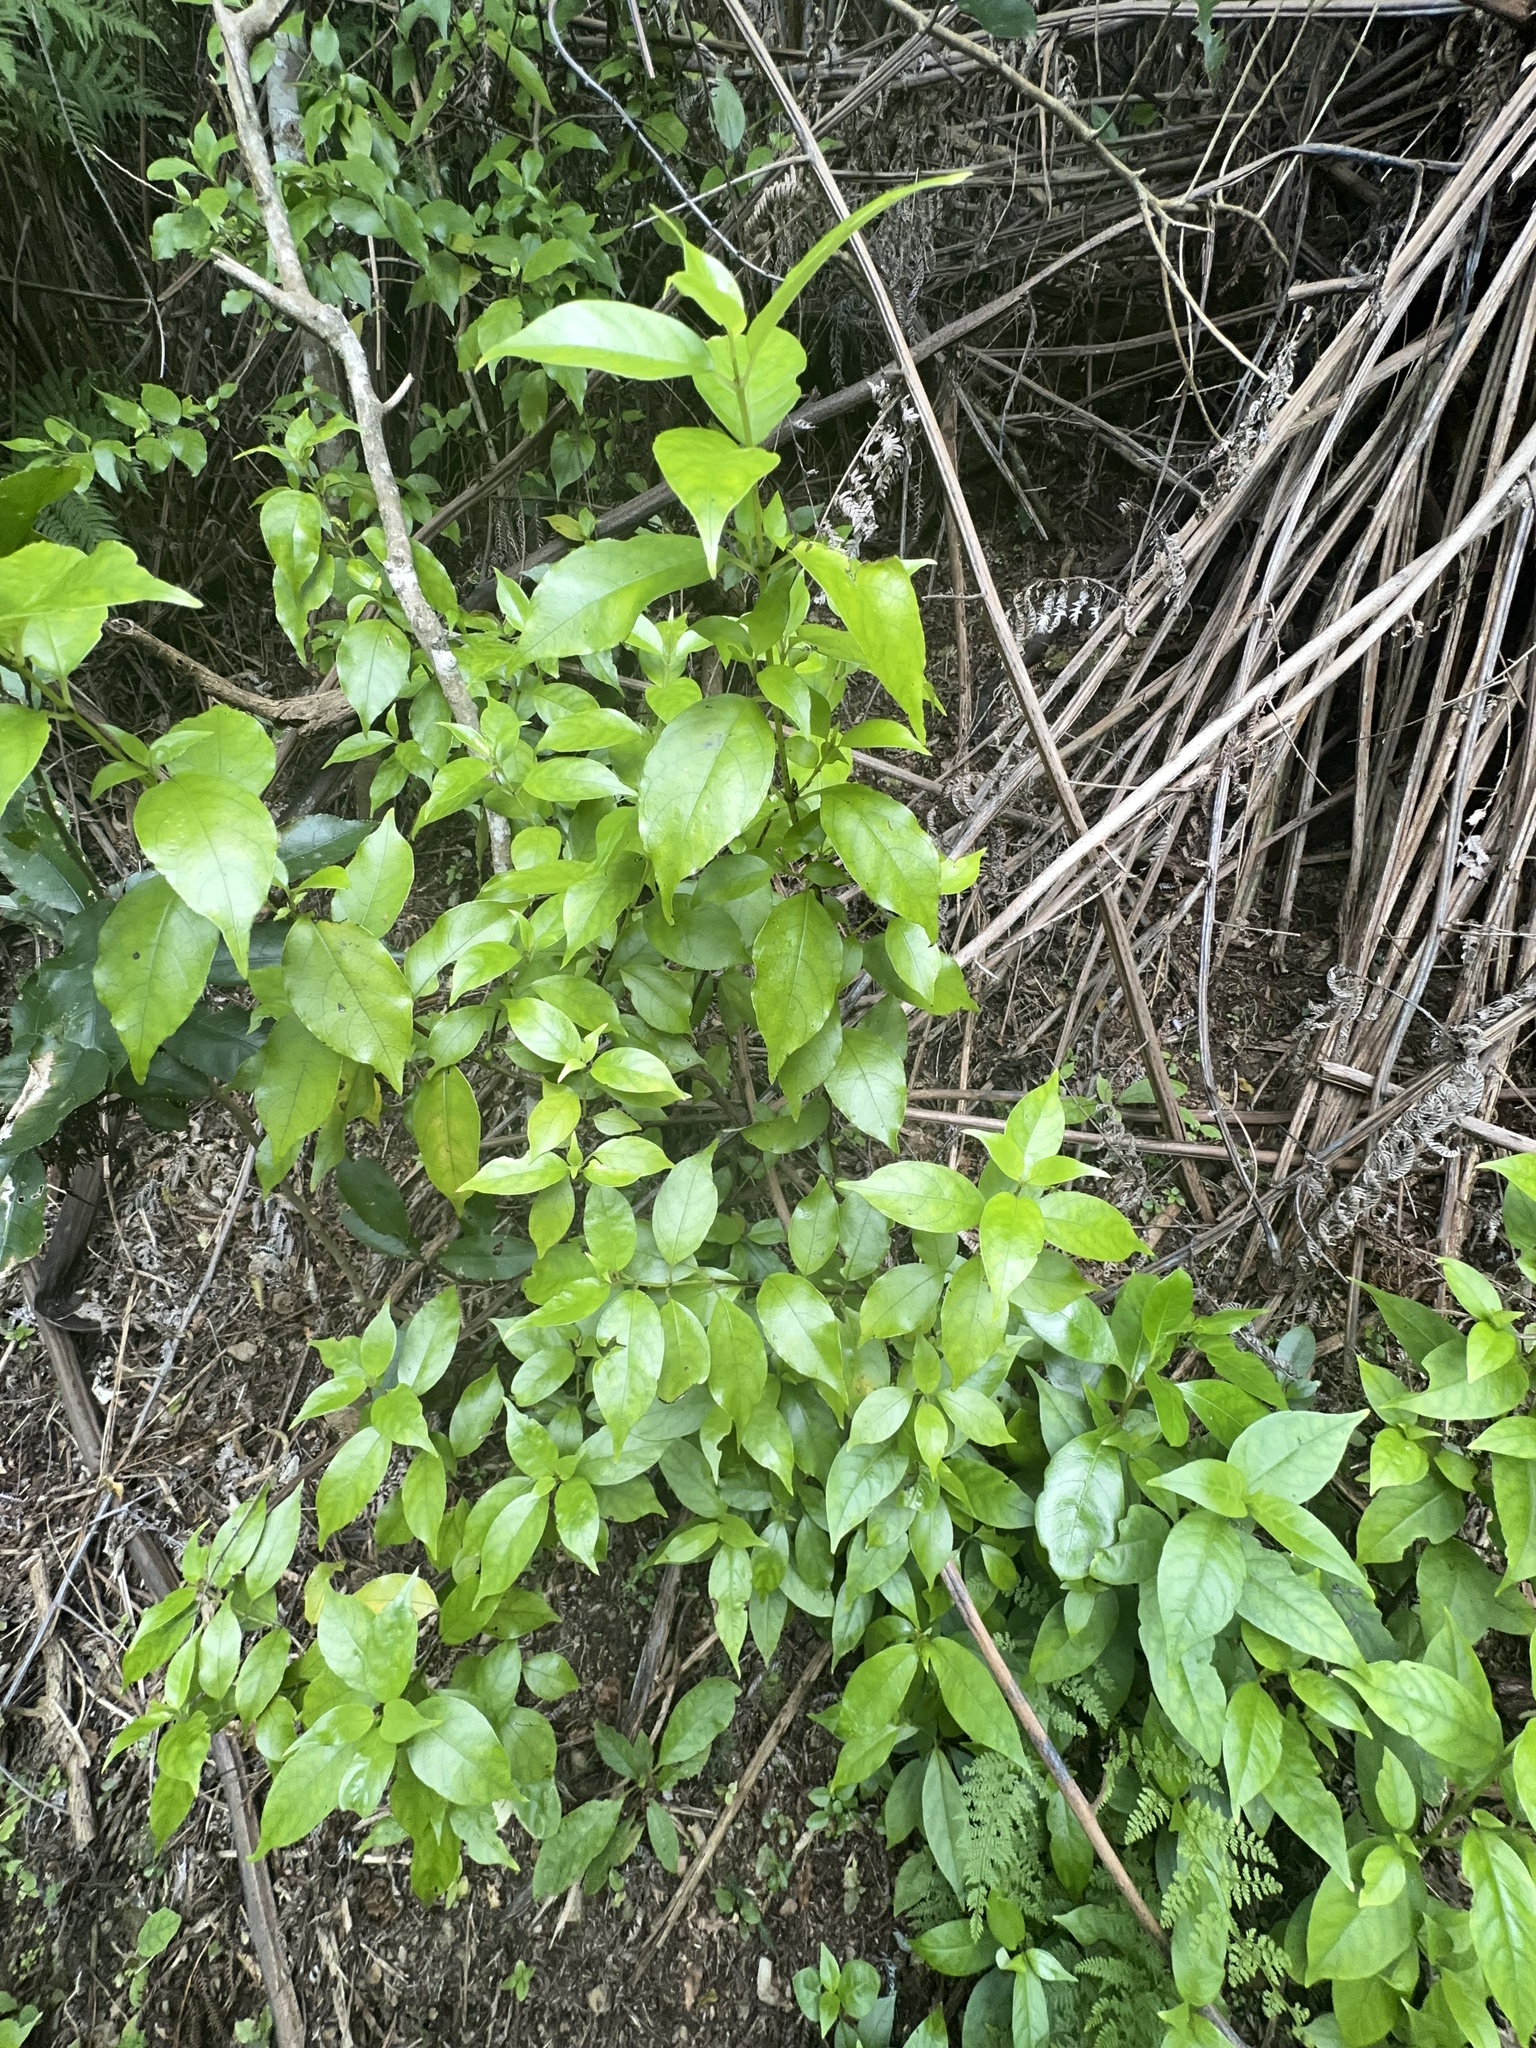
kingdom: Plantae
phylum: Tracheophyta
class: Magnoliopsida
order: Gentianales
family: Loganiaceae
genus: Geniostoma
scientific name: Geniostoma ligustrifolium
